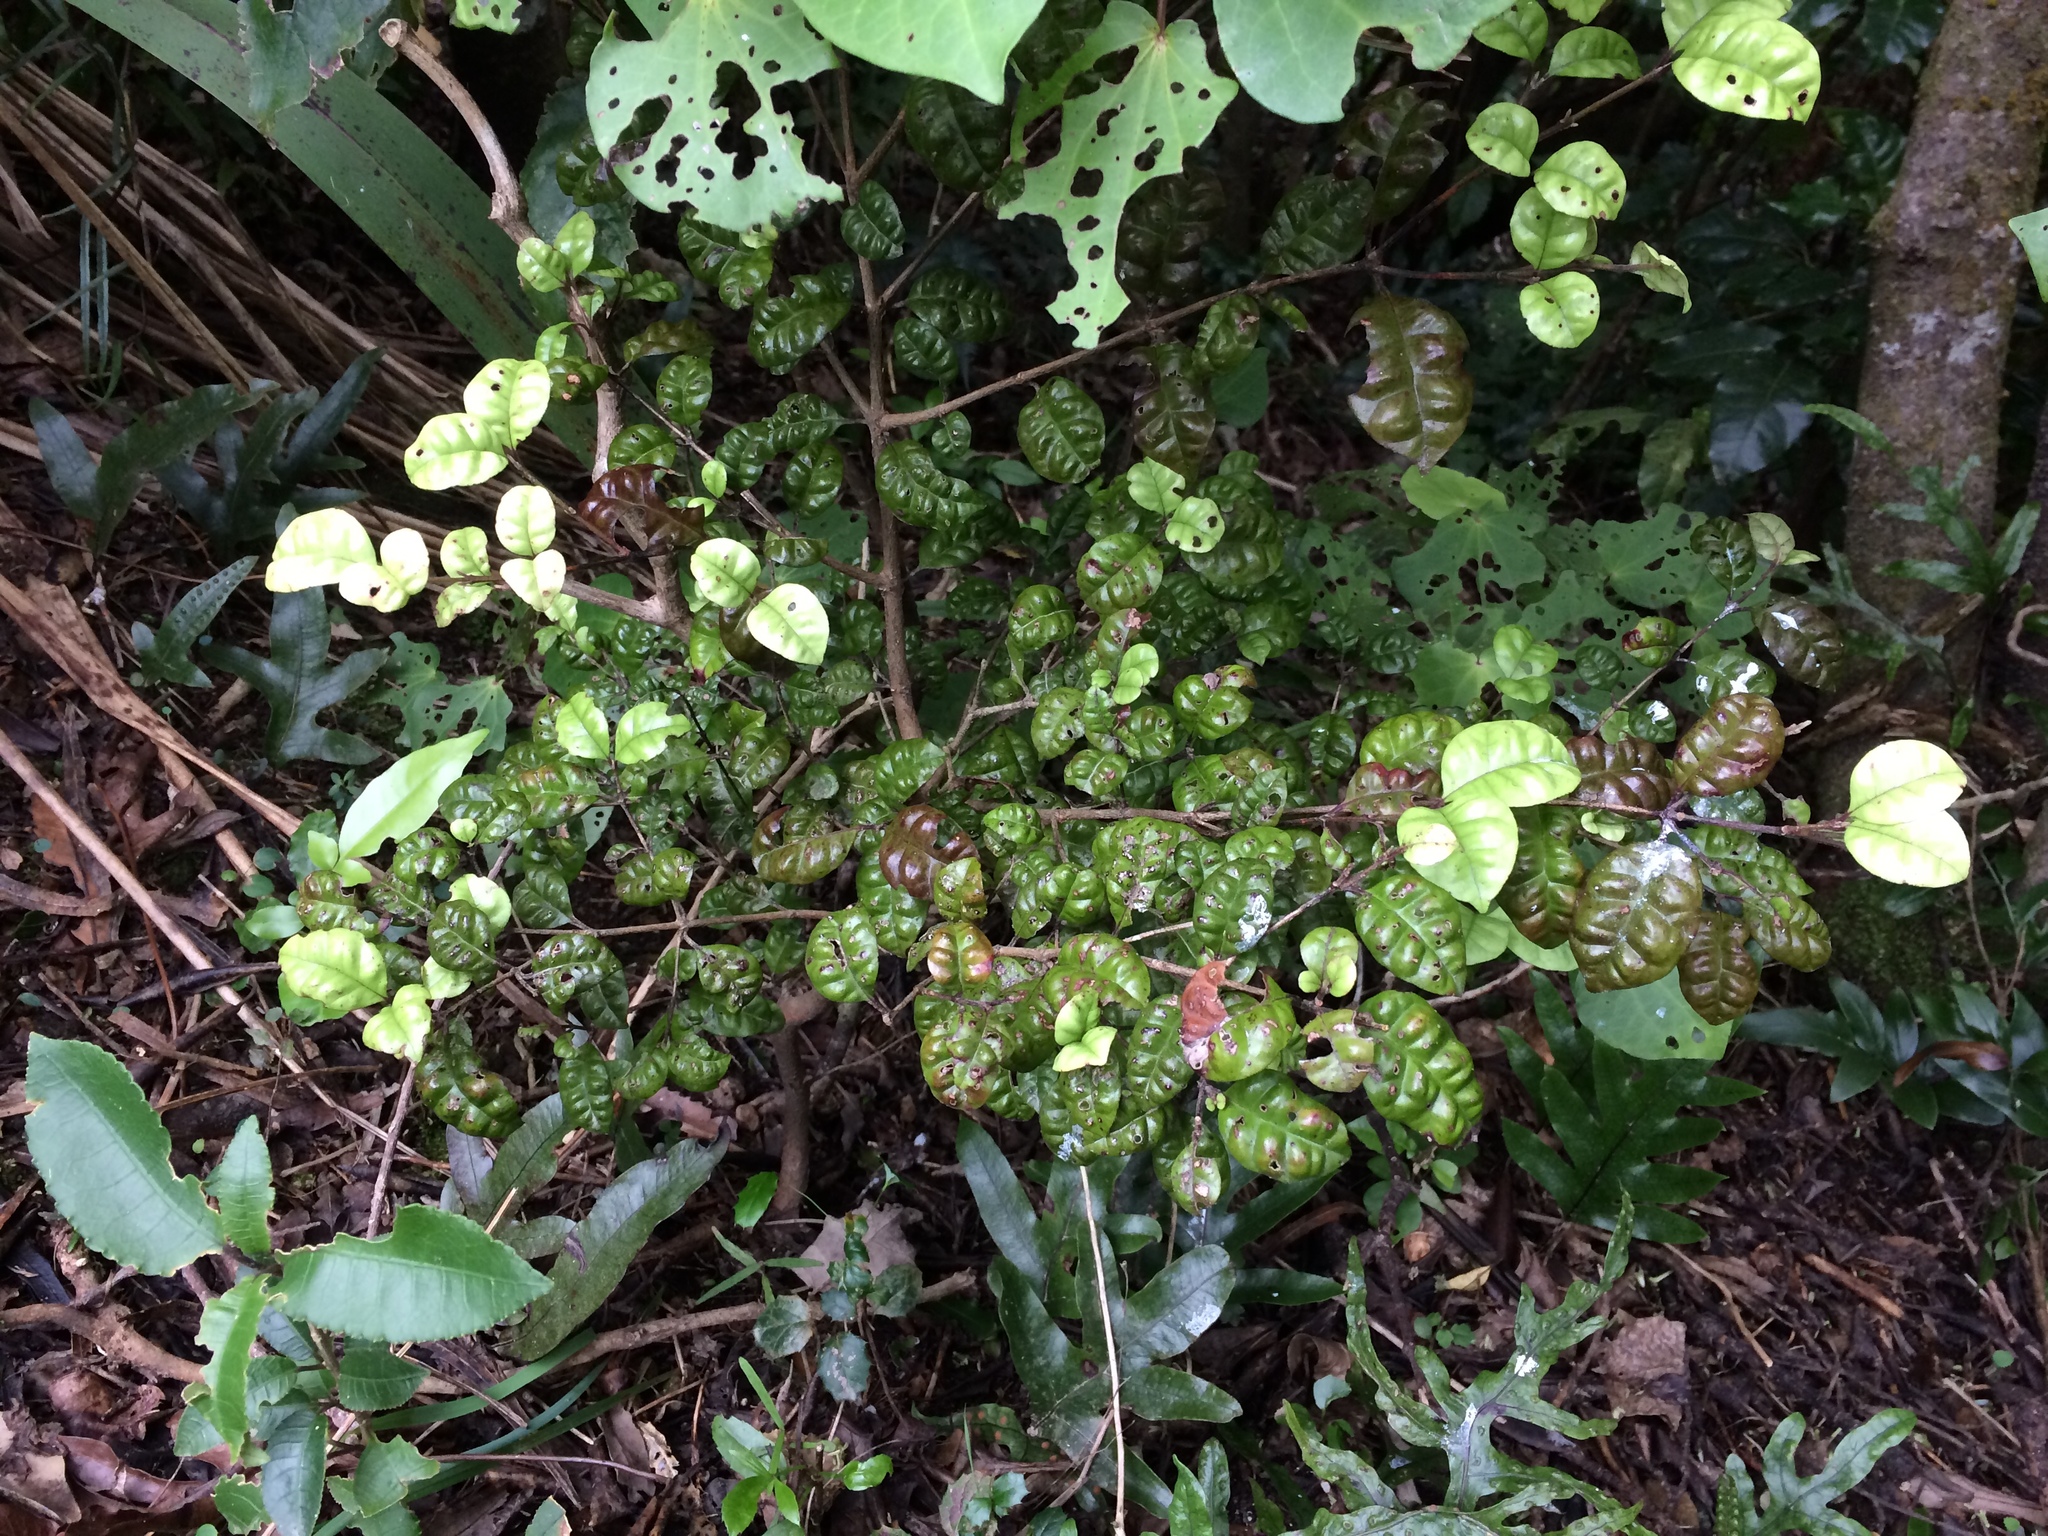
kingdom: Plantae
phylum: Tracheophyta
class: Magnoliopsida
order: Myrtales
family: Myrtaceae
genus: Lophomyrtus
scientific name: Lophomyrtus bullata
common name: Rama rama
